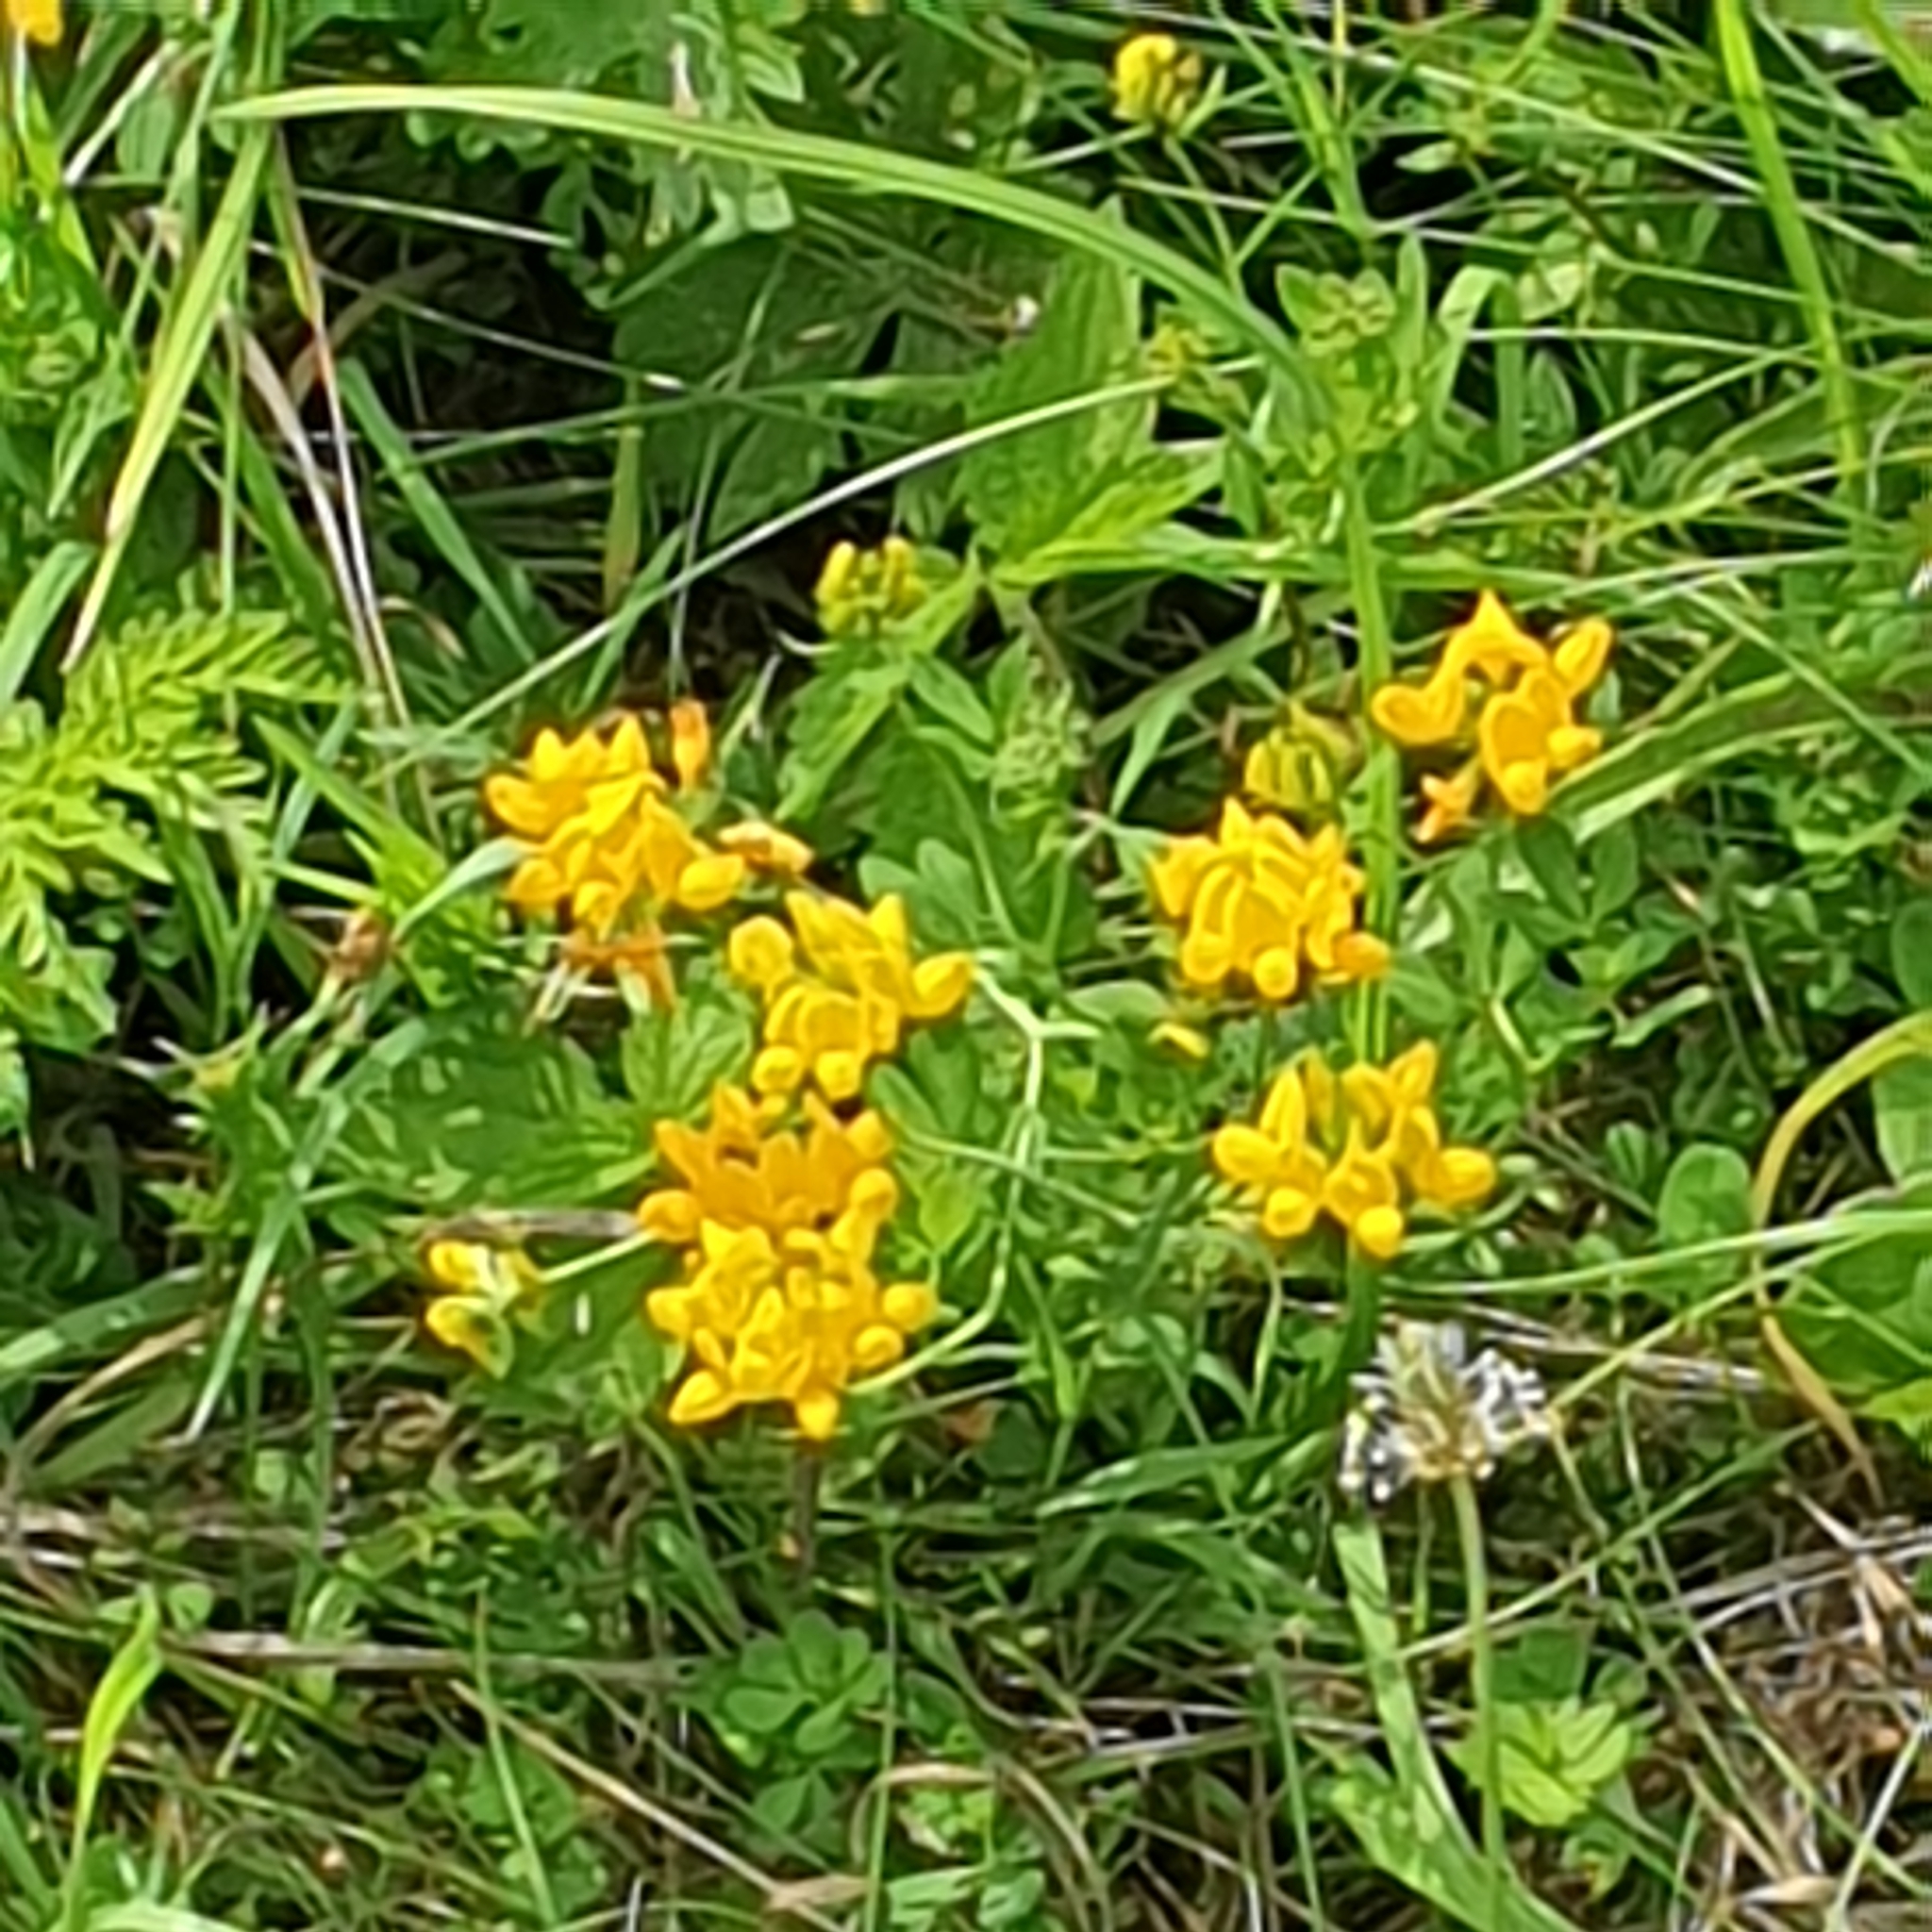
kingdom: Plantae
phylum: Tracheophyta
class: Magnoliopsida
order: Fabales
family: Fabaceae
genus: Lotus
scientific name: Lotus pedunculatus
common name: Greater birdsfoot-trefoil
